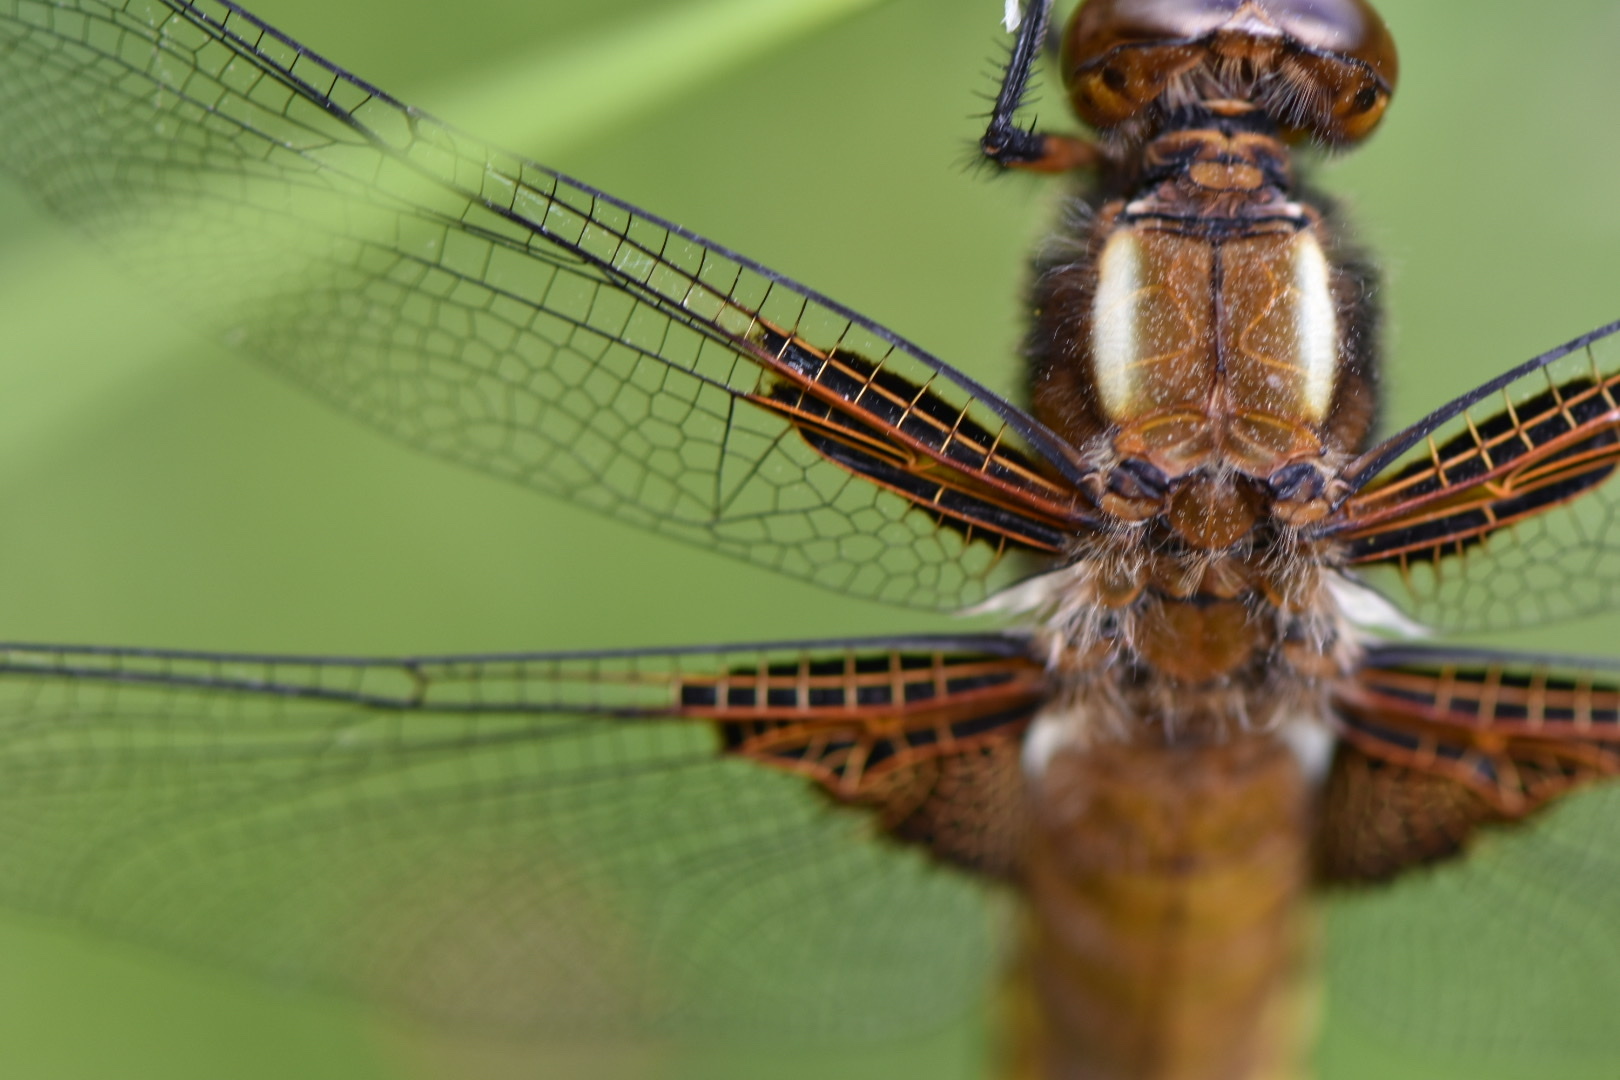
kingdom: Animalia
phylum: Arthropoda
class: Insecta
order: Odonata
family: Libellulidae
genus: Libellula
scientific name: Libellula depressa
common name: Broad-bodied chaser
